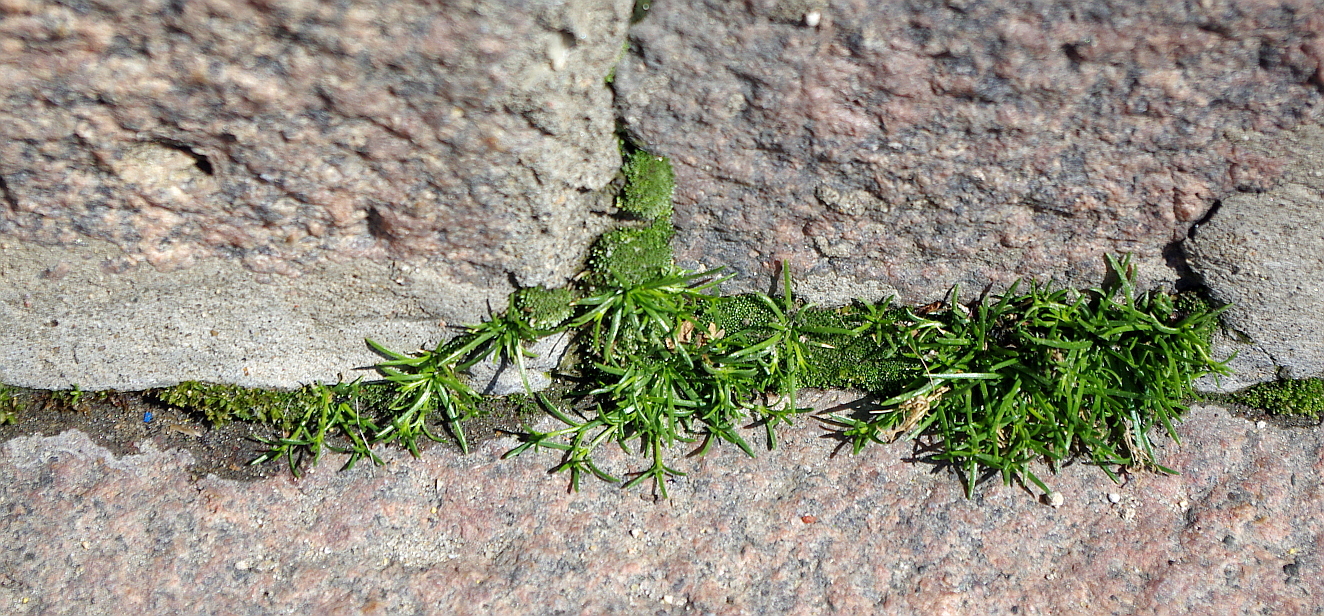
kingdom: Plantae
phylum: Tracheophyta
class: Magnoliopsida
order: Caryophyllales
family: Caryophyllaceae
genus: Sagina
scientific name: Sagina procumbens
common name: Procumbent pearlwort
